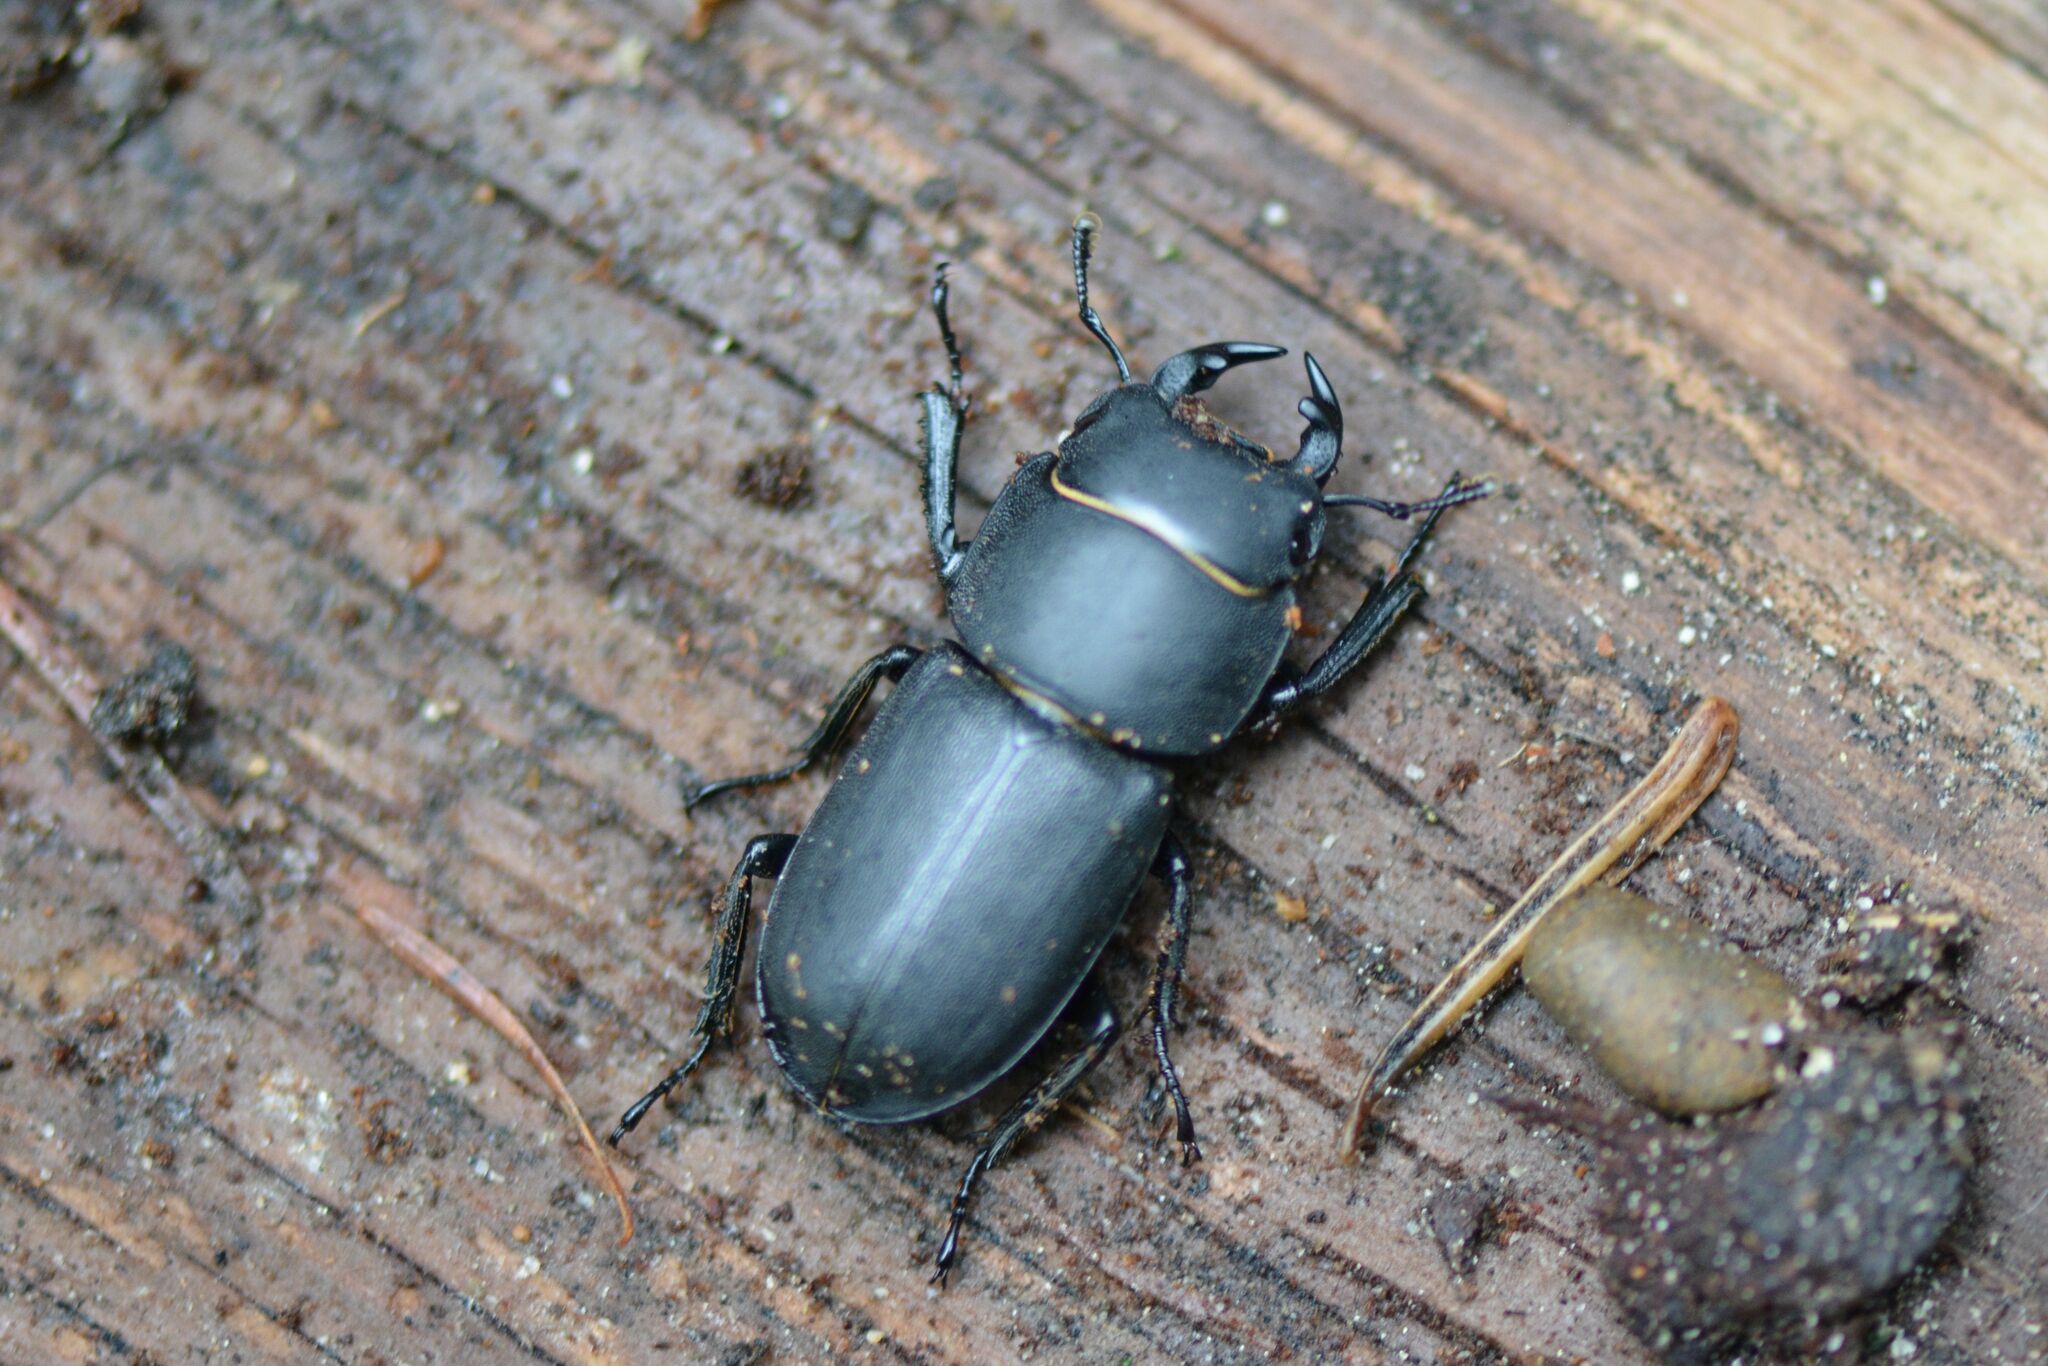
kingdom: Animalia
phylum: Arthropoda
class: Insecta
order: Coleoptera
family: Lucanidae
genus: Dorcus
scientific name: Dorcus parallelipipedus
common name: Lesser stag beetle
